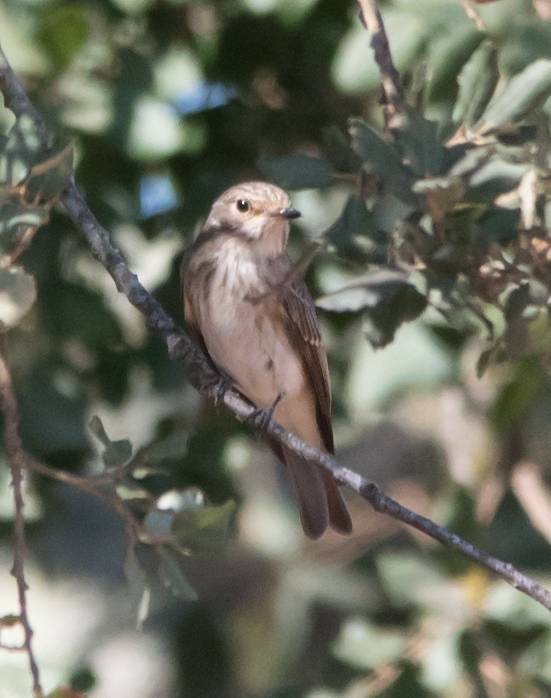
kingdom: Animalia
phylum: Chordata
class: Aves
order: Passeriformes
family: Muscicapidae
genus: Muscicapa
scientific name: Muscicapa striata
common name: Spotted flycatcher
